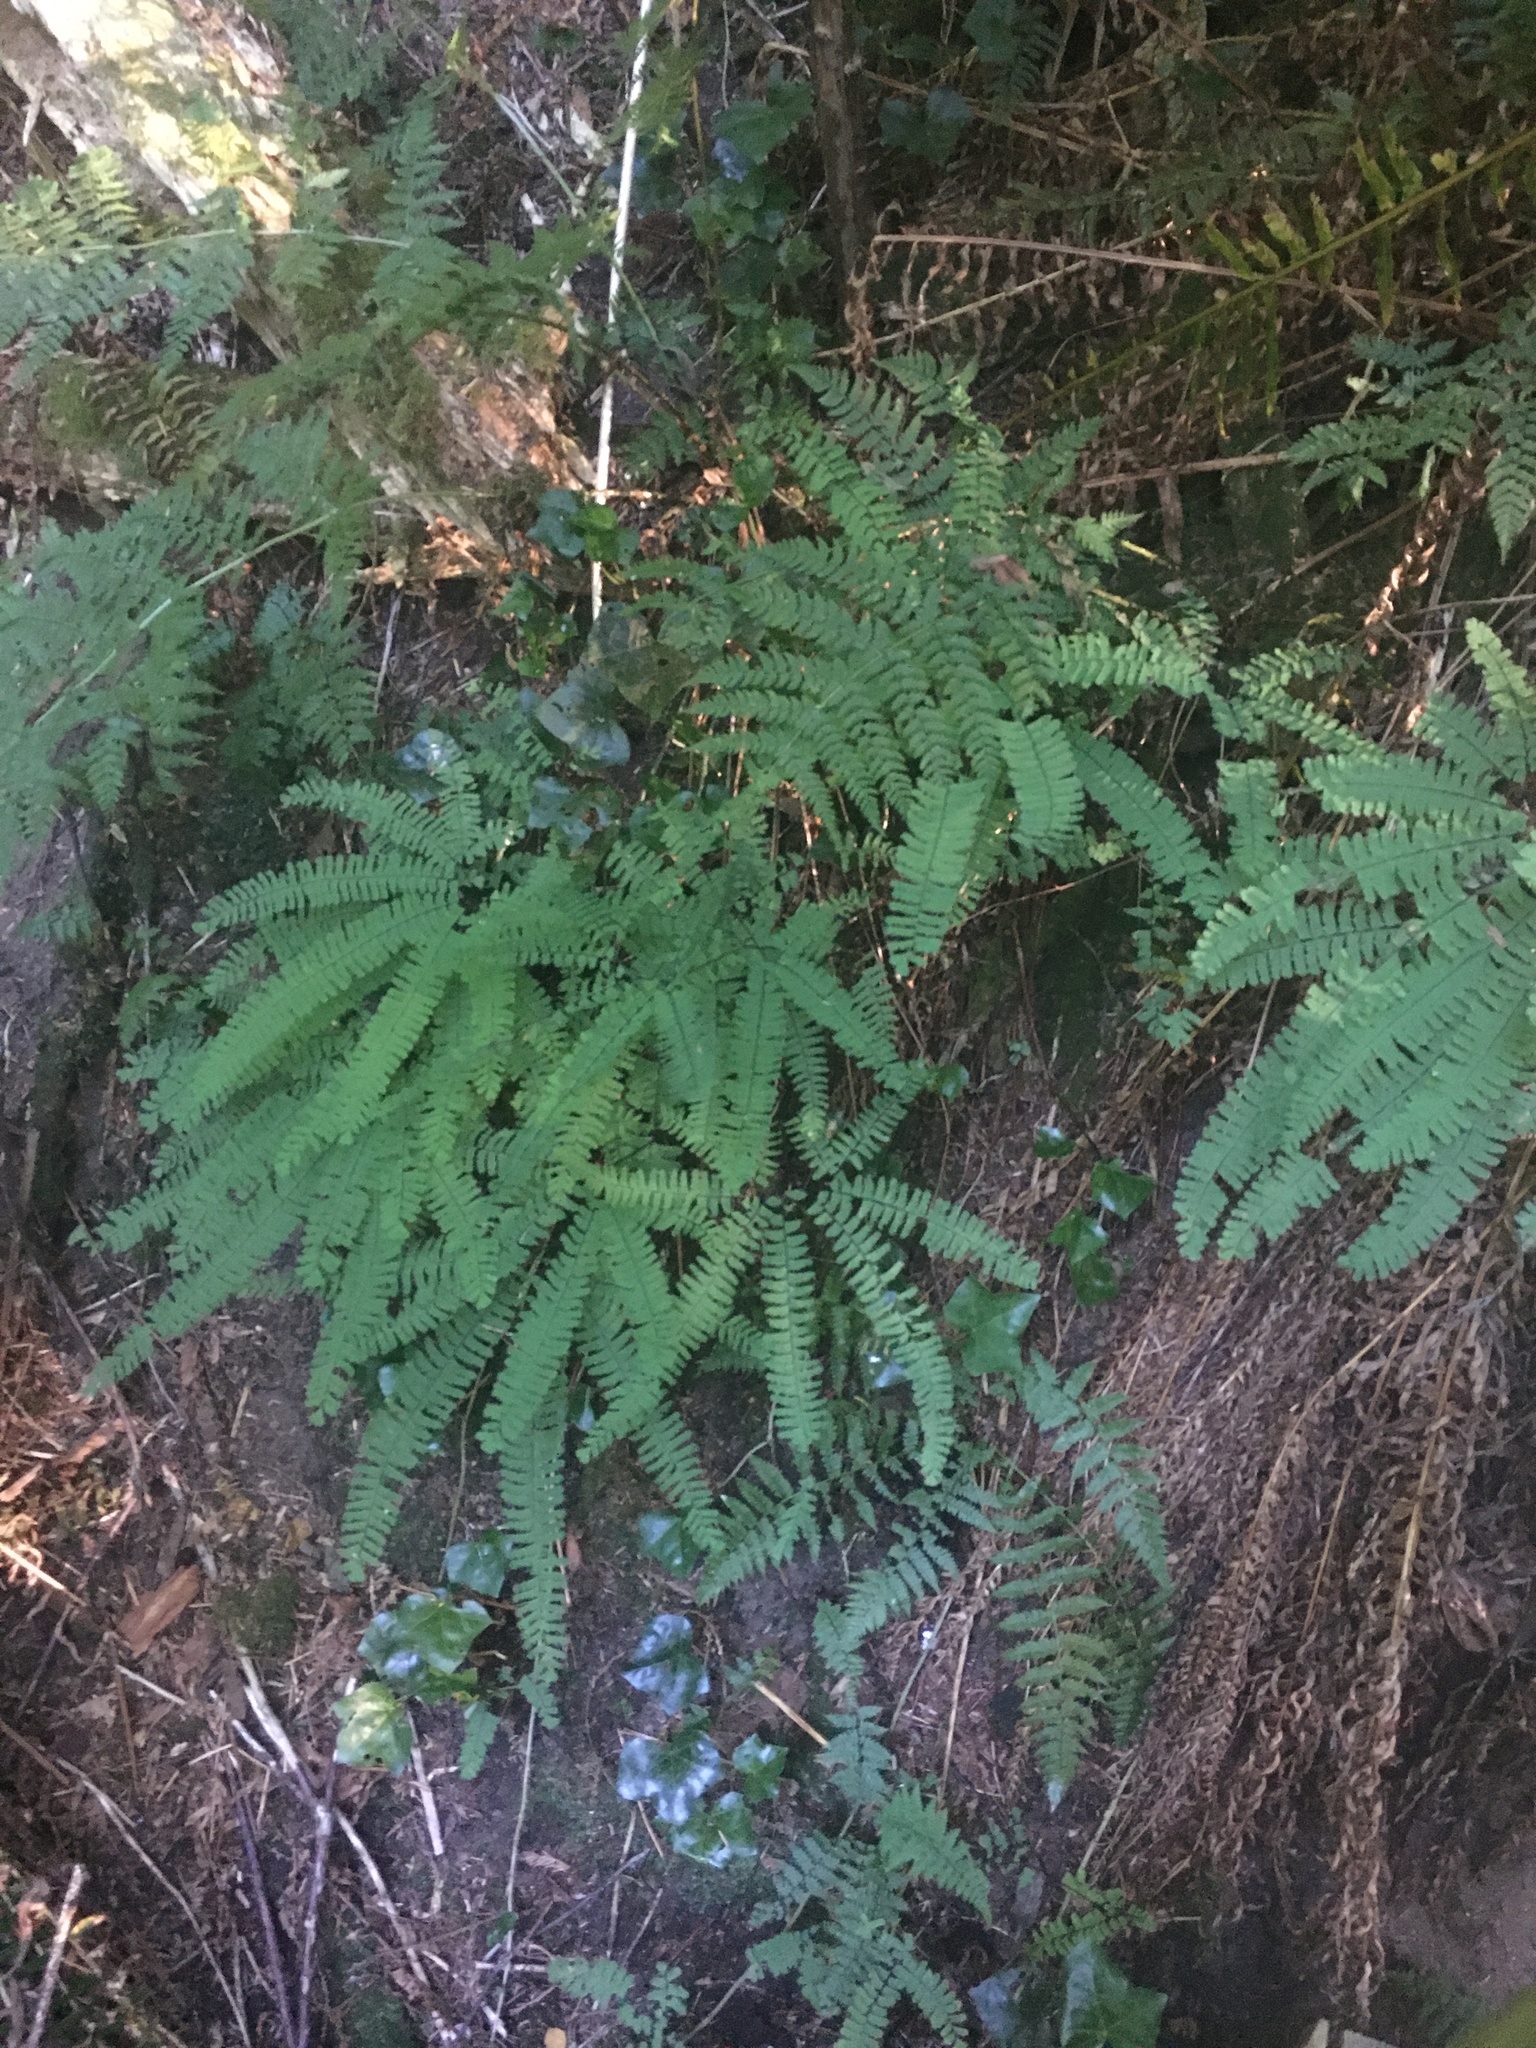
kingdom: Plantae
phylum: Tracheophyta
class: Polypodiopsida
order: Polypodiales
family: Pteridaceae
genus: Adiantum
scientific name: Adiantum aleuticum
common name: Aleutian maidenhair fern
